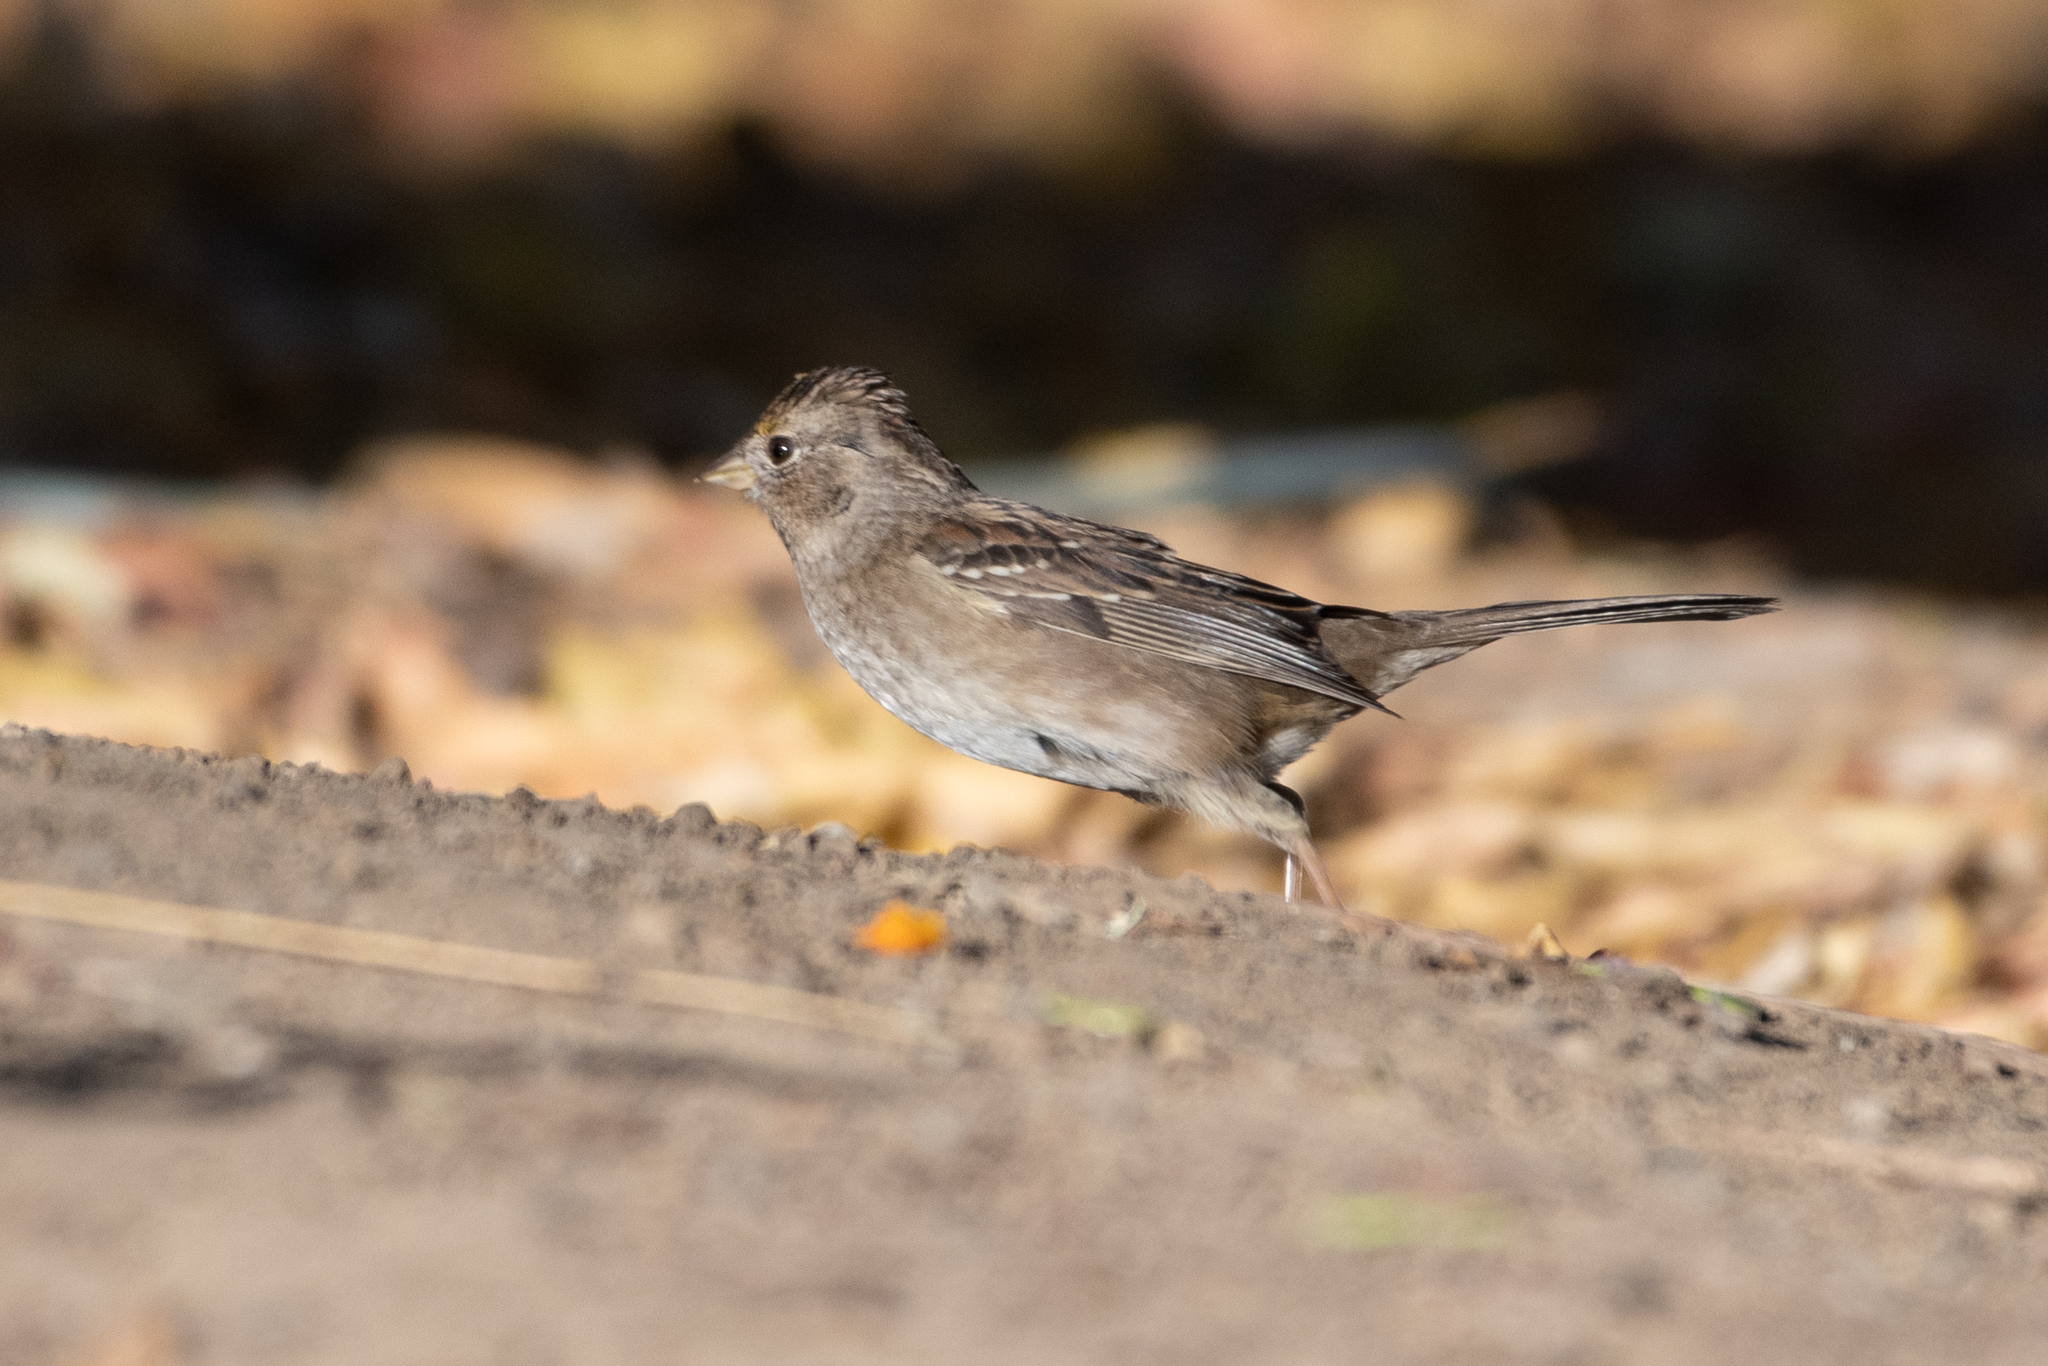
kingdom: Animalia
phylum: Chordata
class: Aves
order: Passeriformes
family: Passerellidae
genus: Zonotrichia
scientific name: Zonotrichia atricapilla
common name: Golden-crowned sparrow
